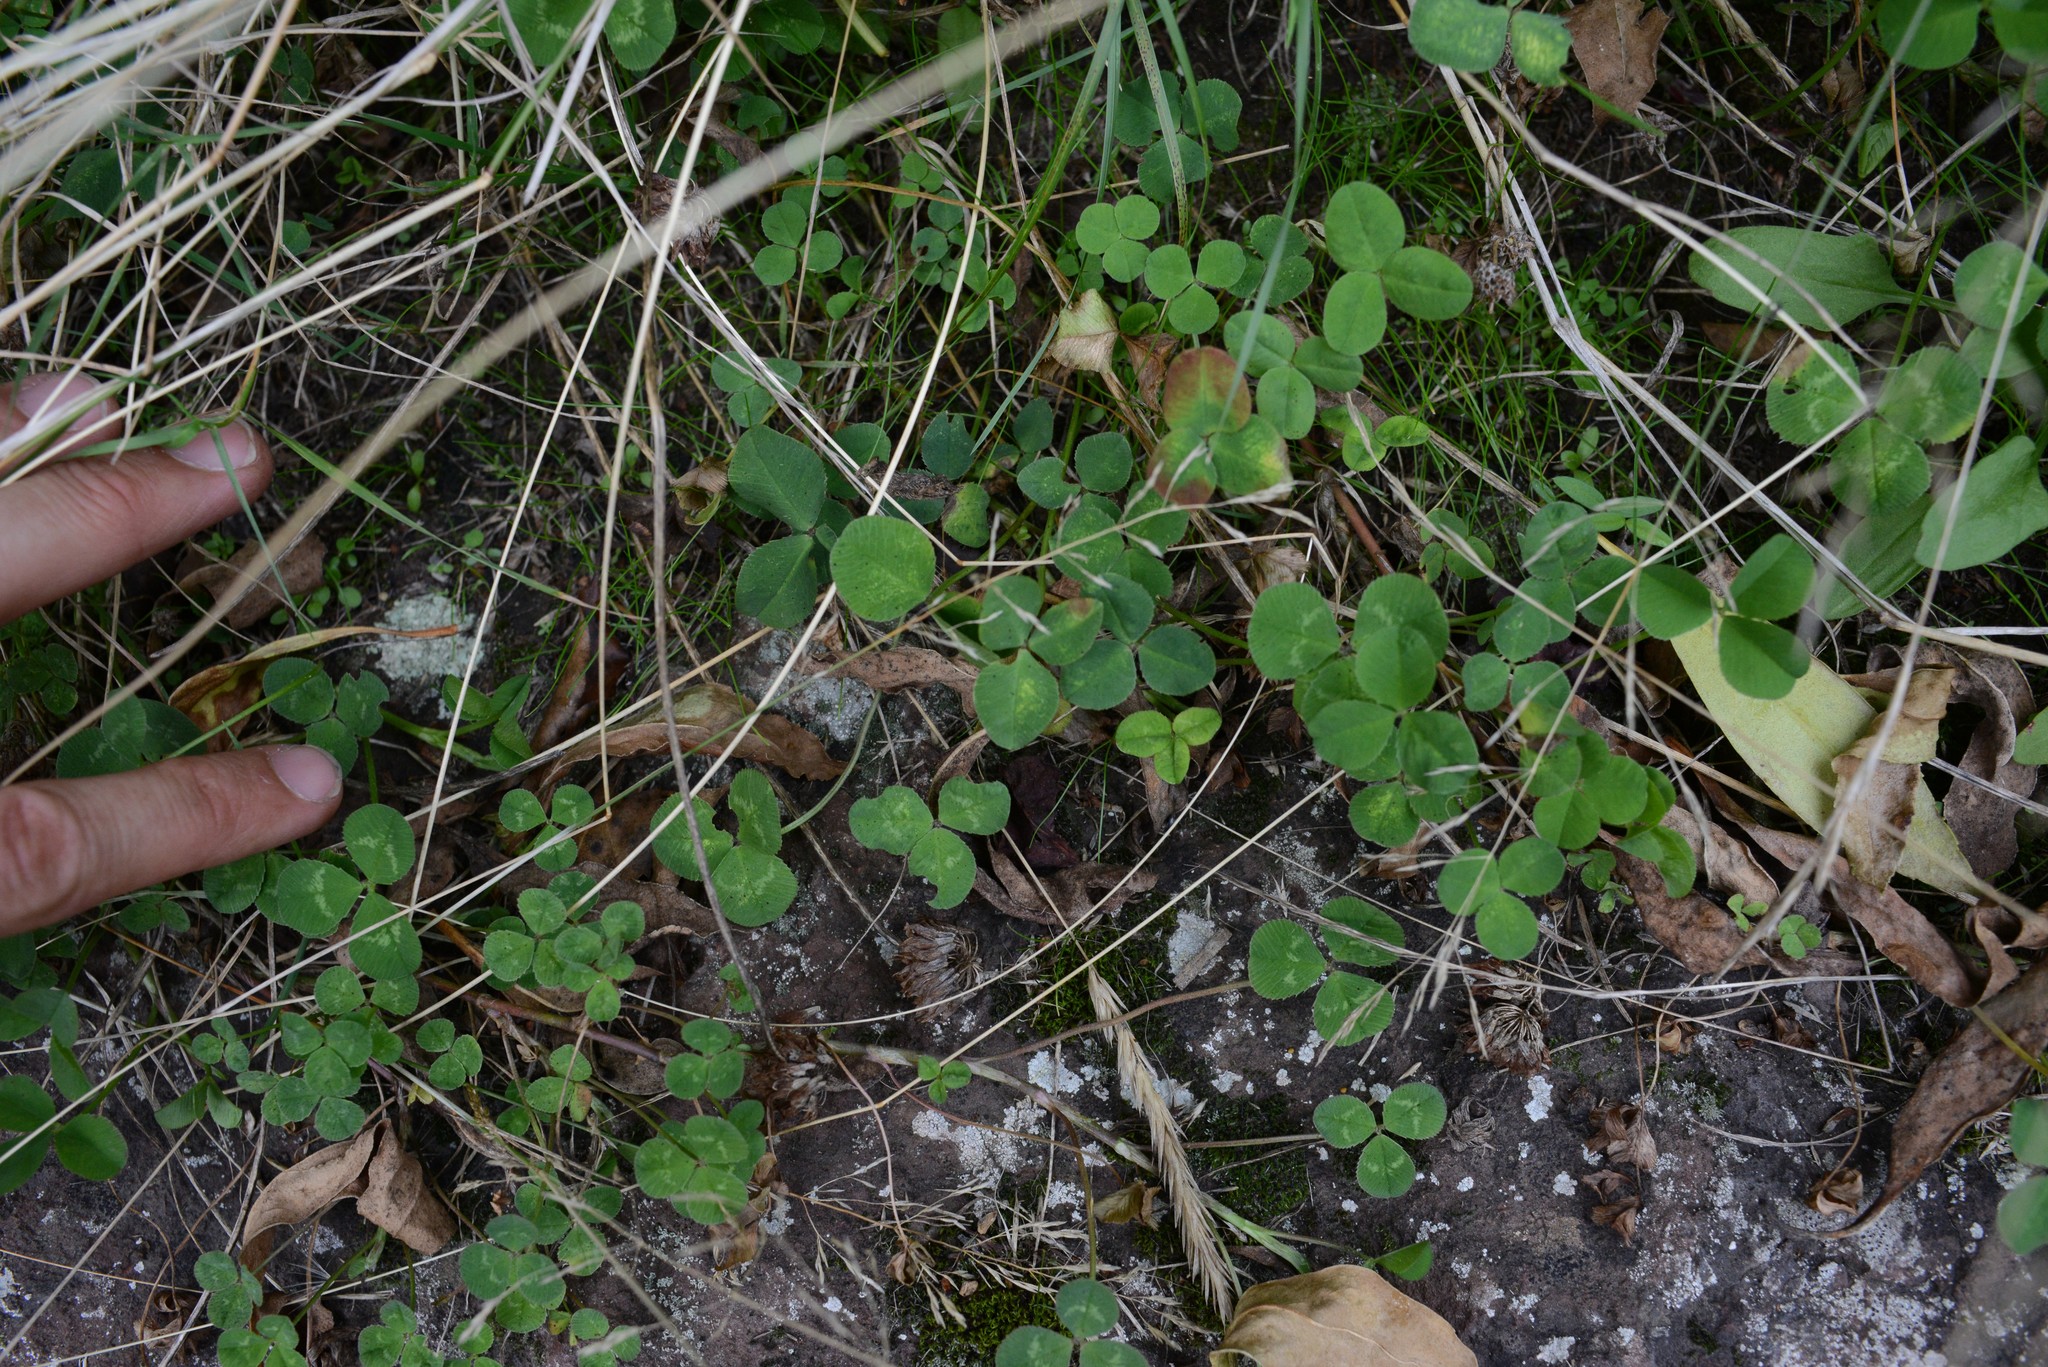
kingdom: Plantae
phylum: Tracheophyta
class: Magnoliopsida
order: Fabales
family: Fabaceae
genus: Trifolium
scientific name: Trifolium repens
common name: White clover
